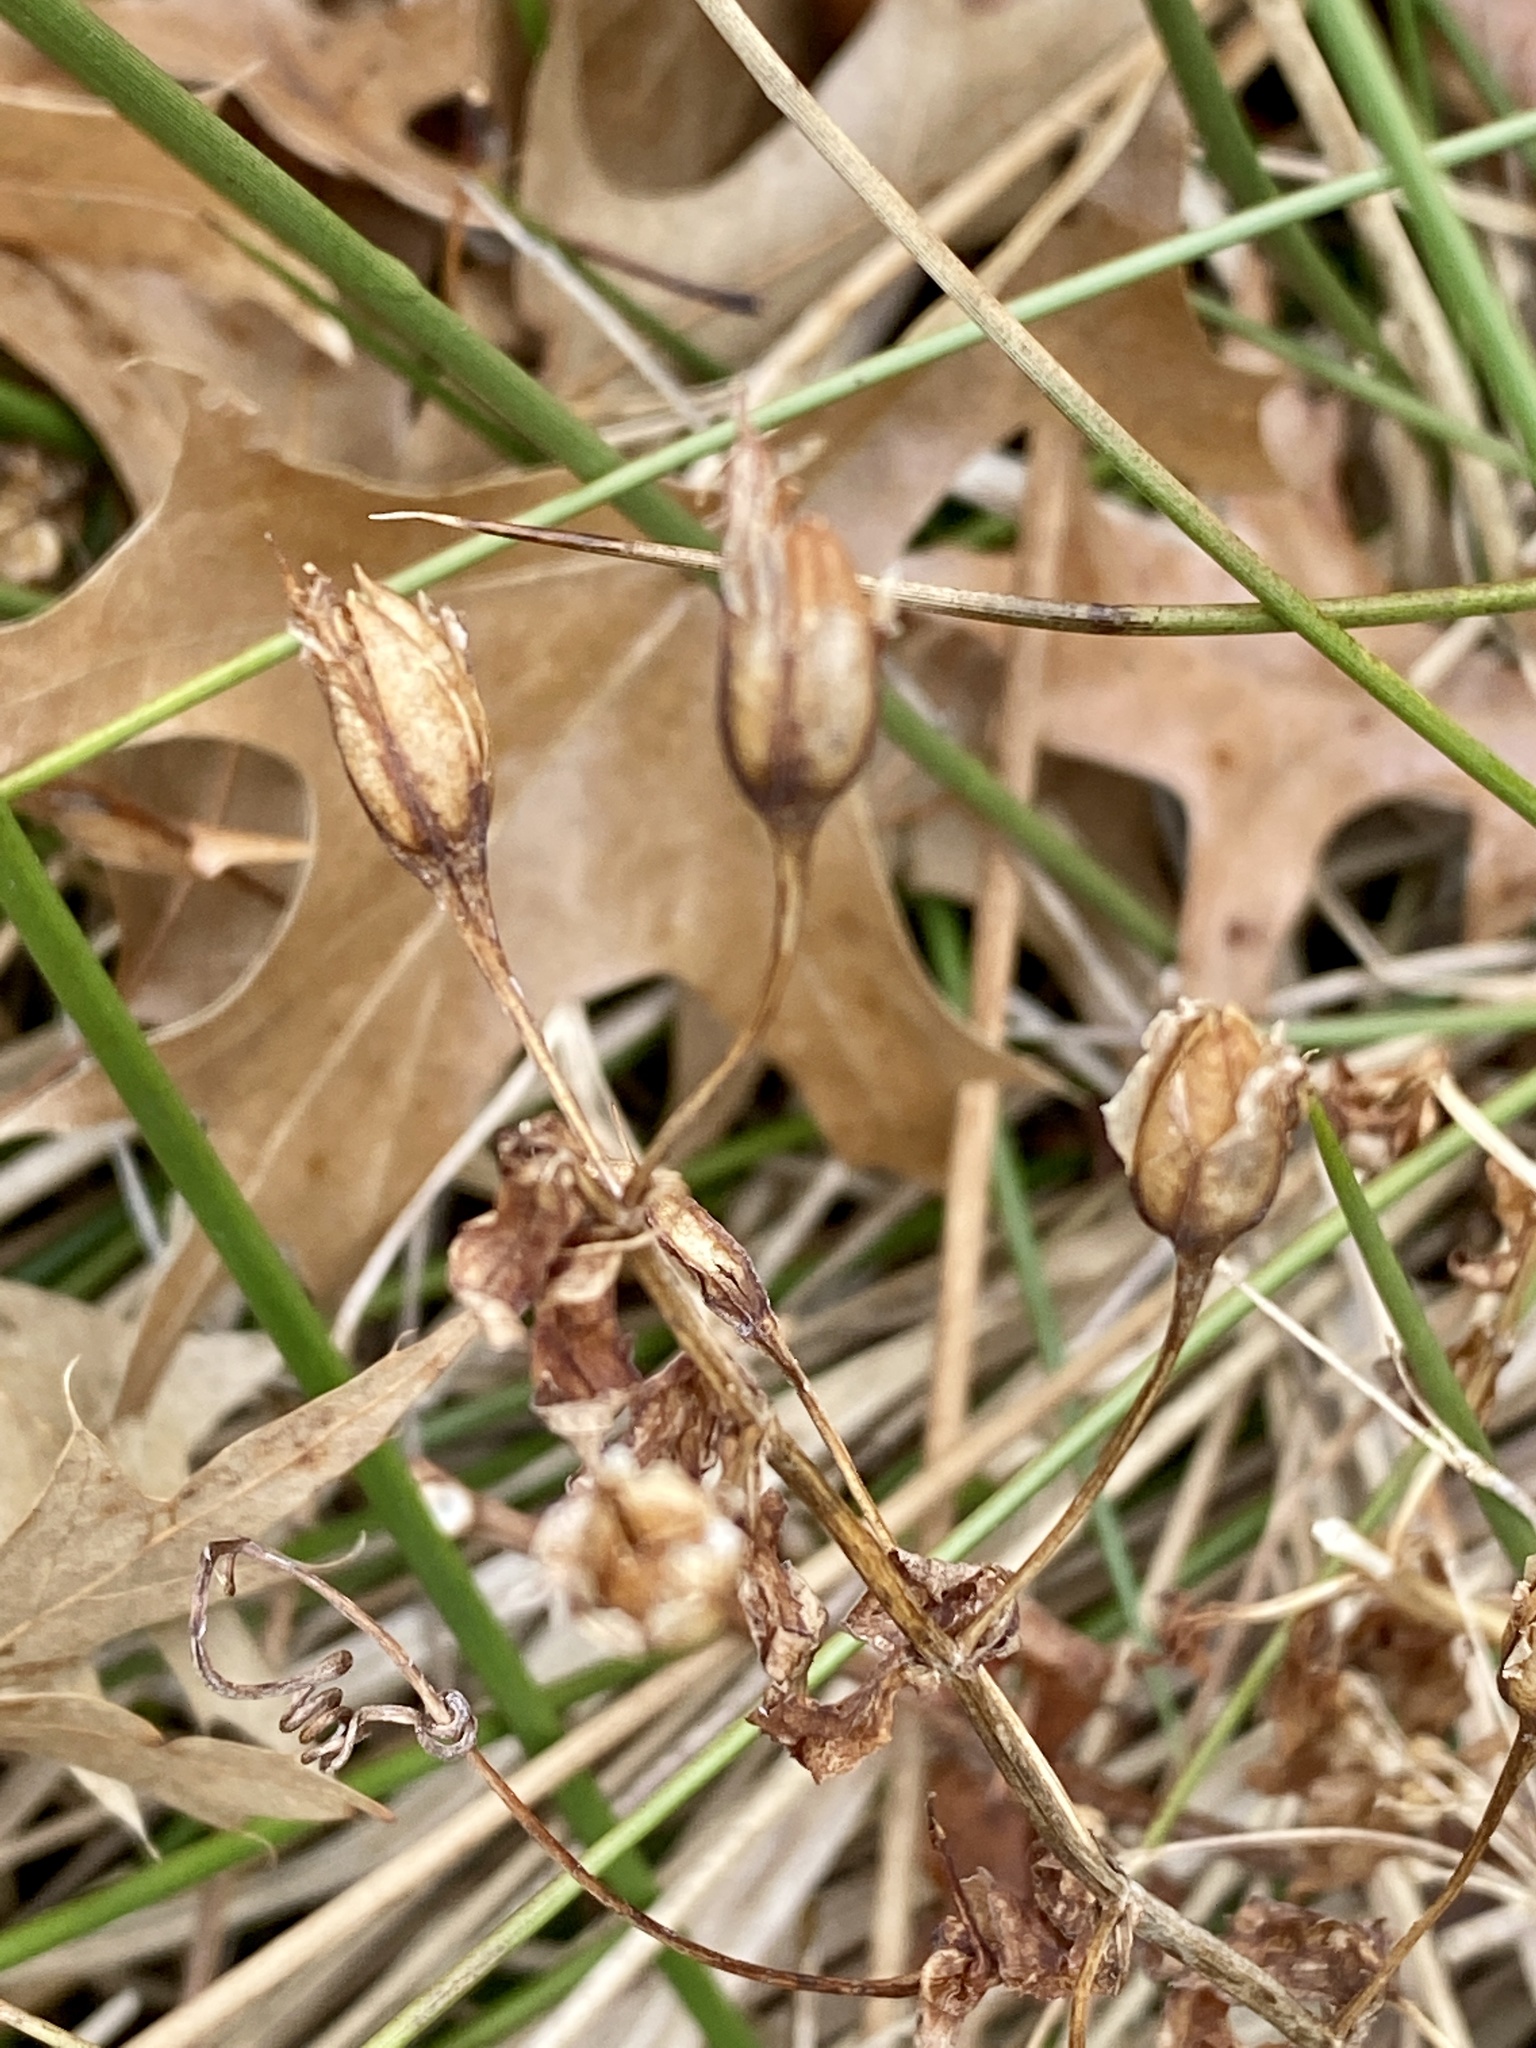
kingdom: Plantae
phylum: Tracheophyta
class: Magnoliopsida
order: Lamiales
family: Phrymaceae
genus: Mimulus
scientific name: Mimulus ringens
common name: Allegheny monkeyflower
